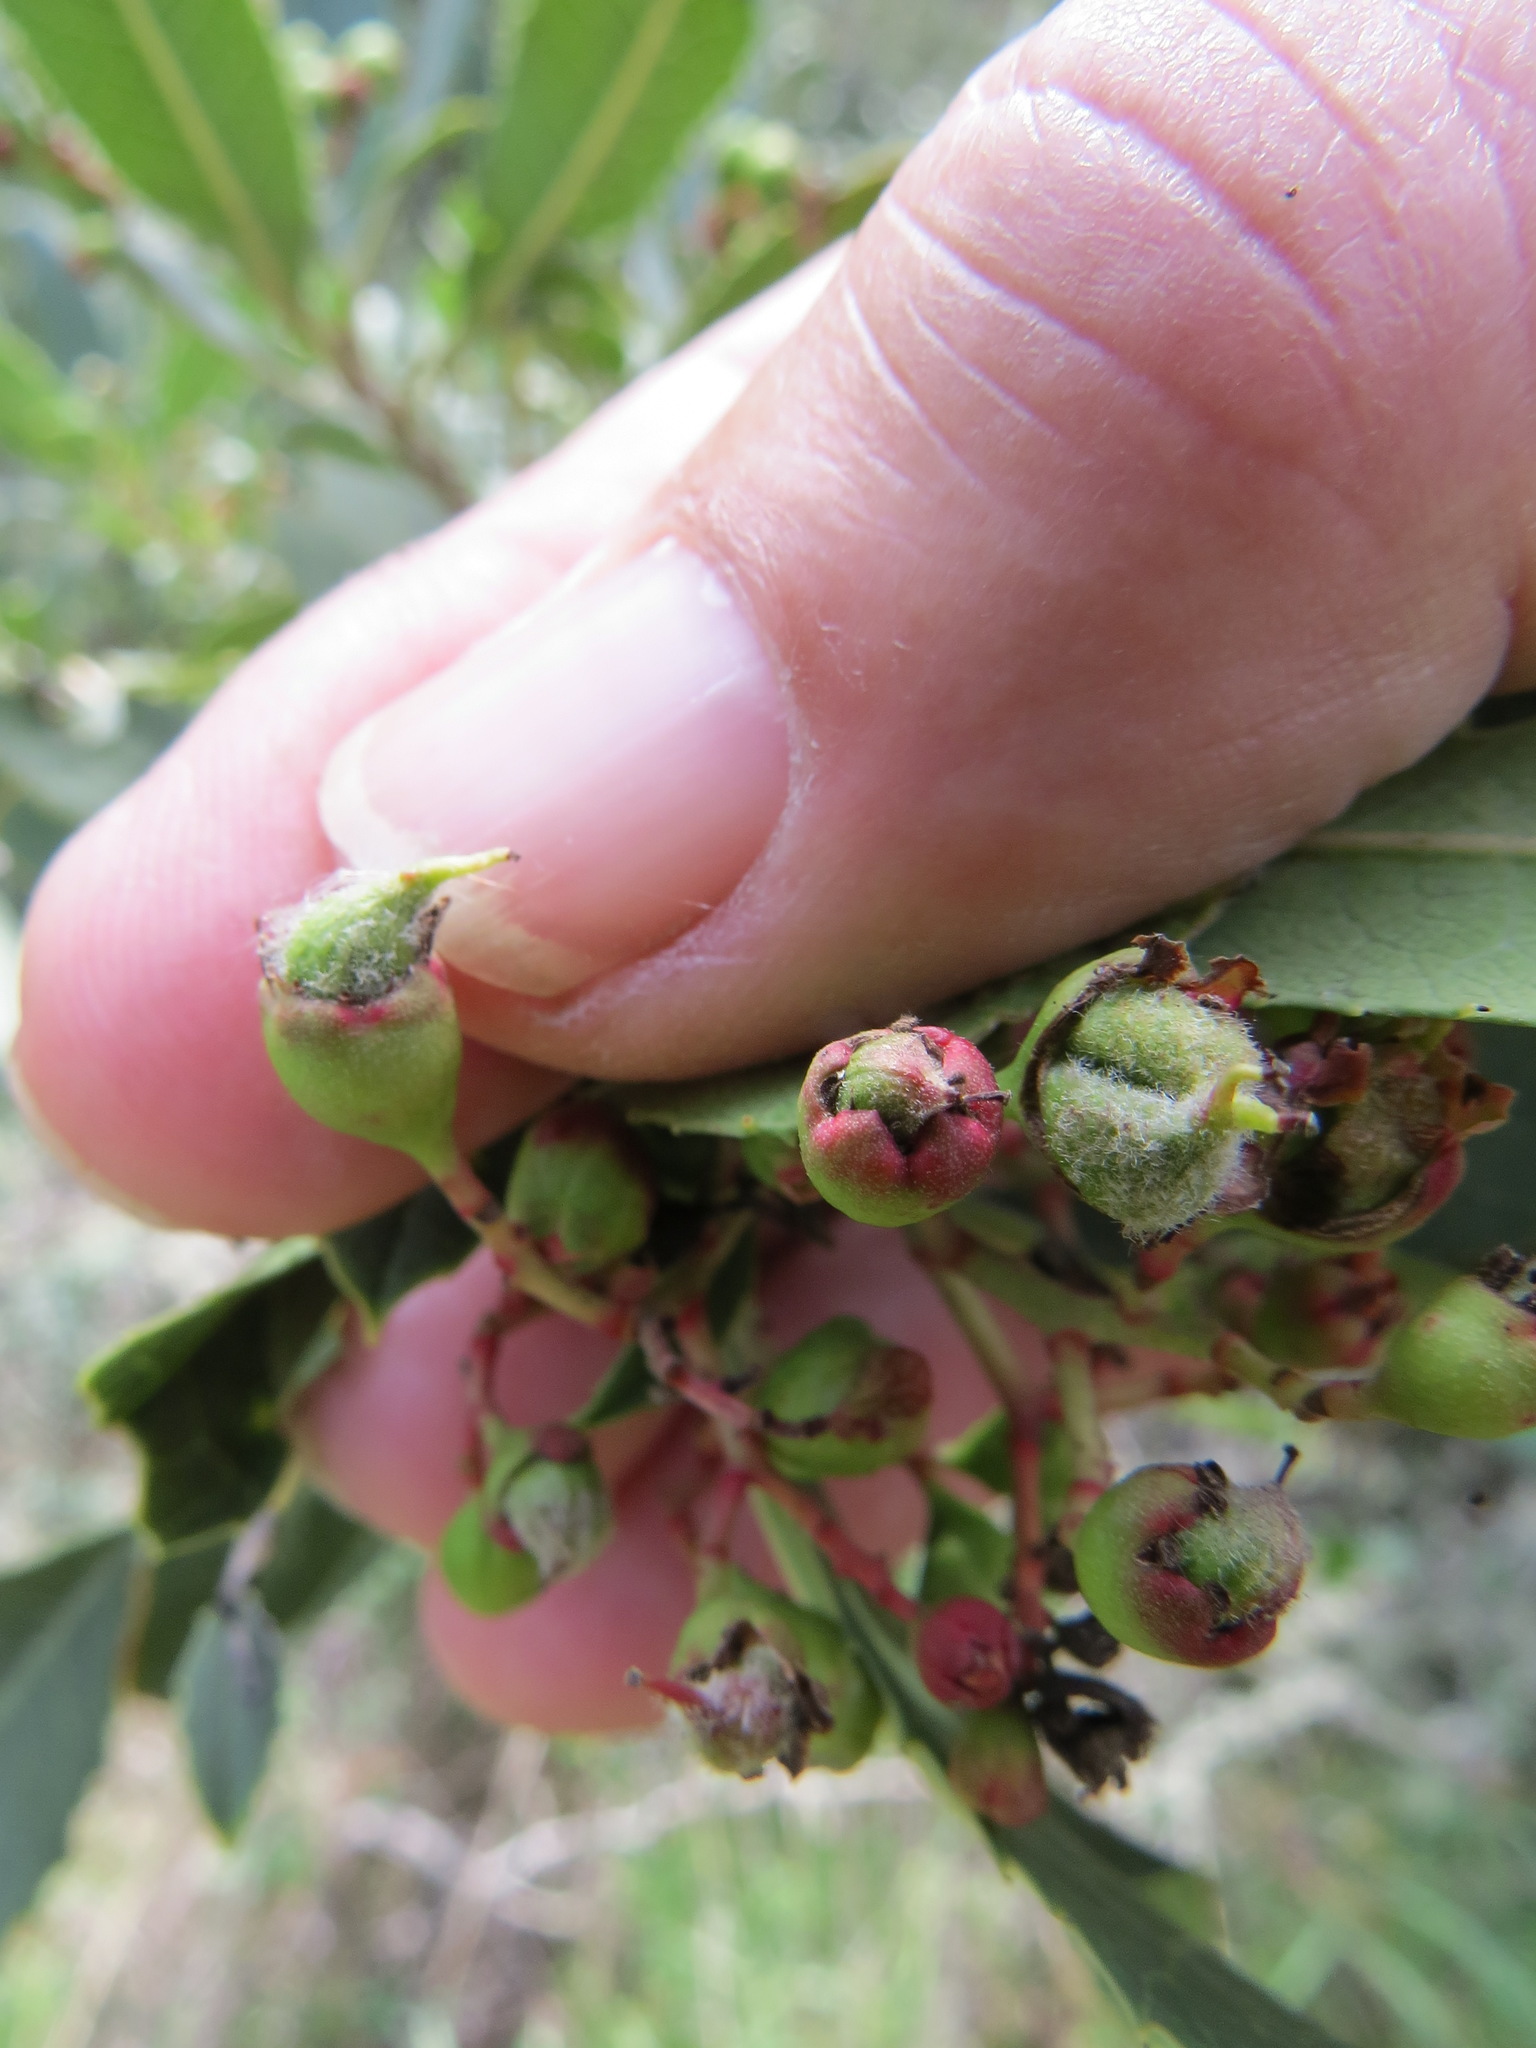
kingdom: Animalia
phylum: Arthropoda
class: Insecta
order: Diptera
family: Cecidomyiidae
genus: Asphondylia
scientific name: Asphondylia photiniae
